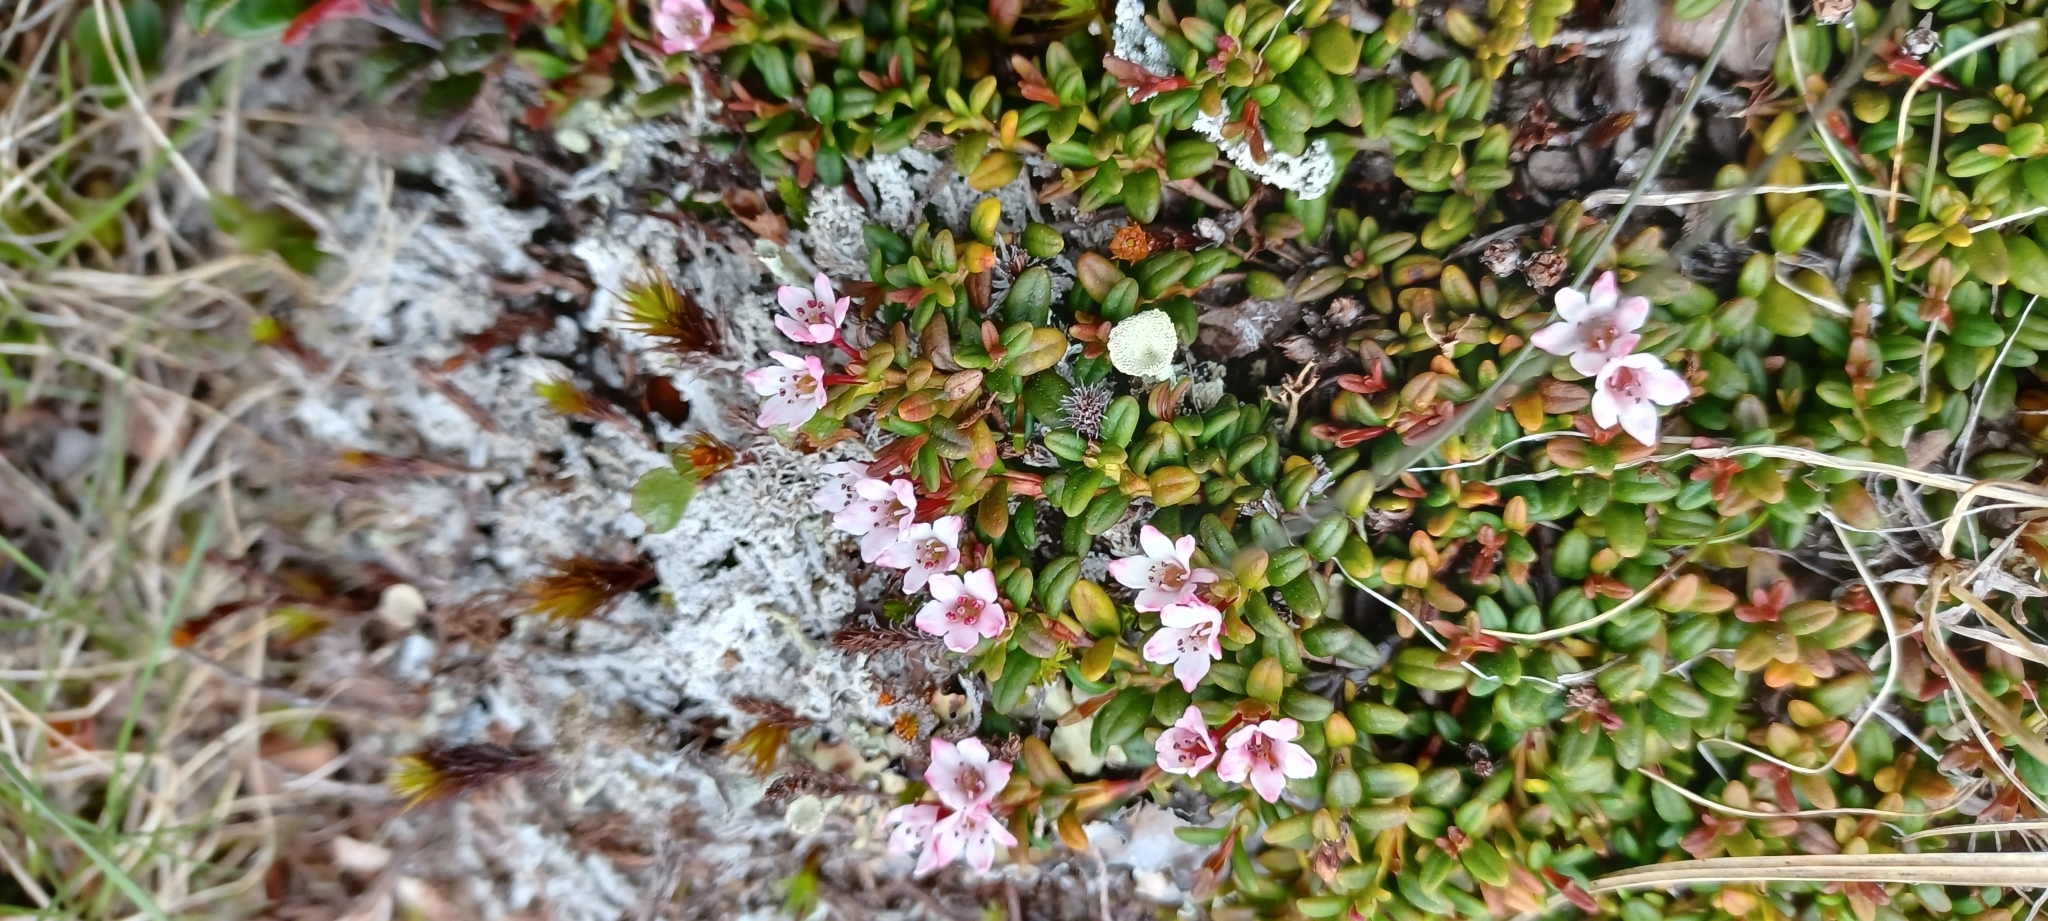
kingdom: Plantae
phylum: Tracheophyta
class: Magnoliopsida
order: Ericales
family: Ericaceae
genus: Kalmia
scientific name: Kalmia procumbens
